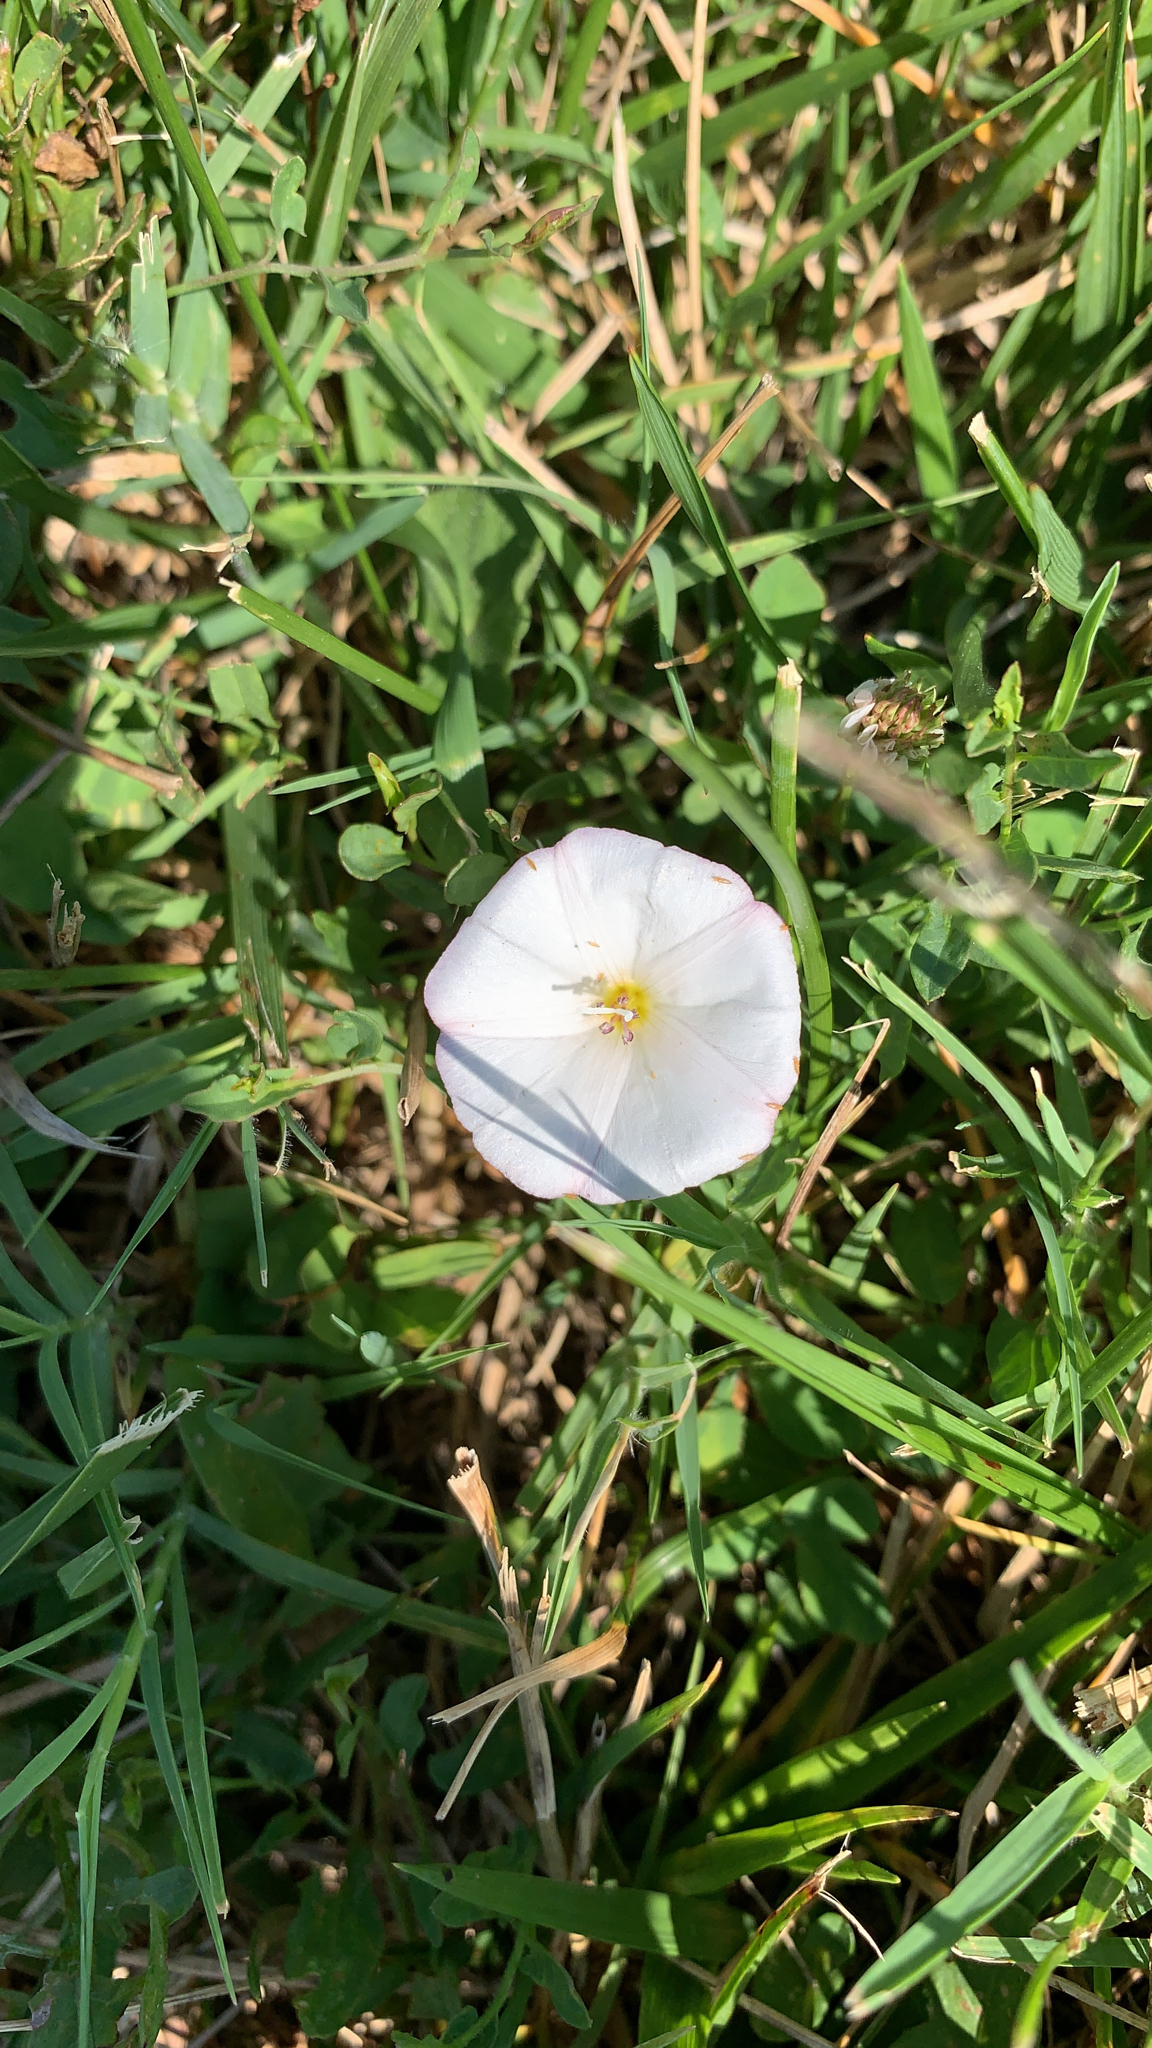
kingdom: Plantae
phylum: Tracheophyta
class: Magnoliopsida
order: Solanales
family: Convolvulaceae
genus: Convolvulus
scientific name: Convolvulus arvensis
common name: Field bindweed
